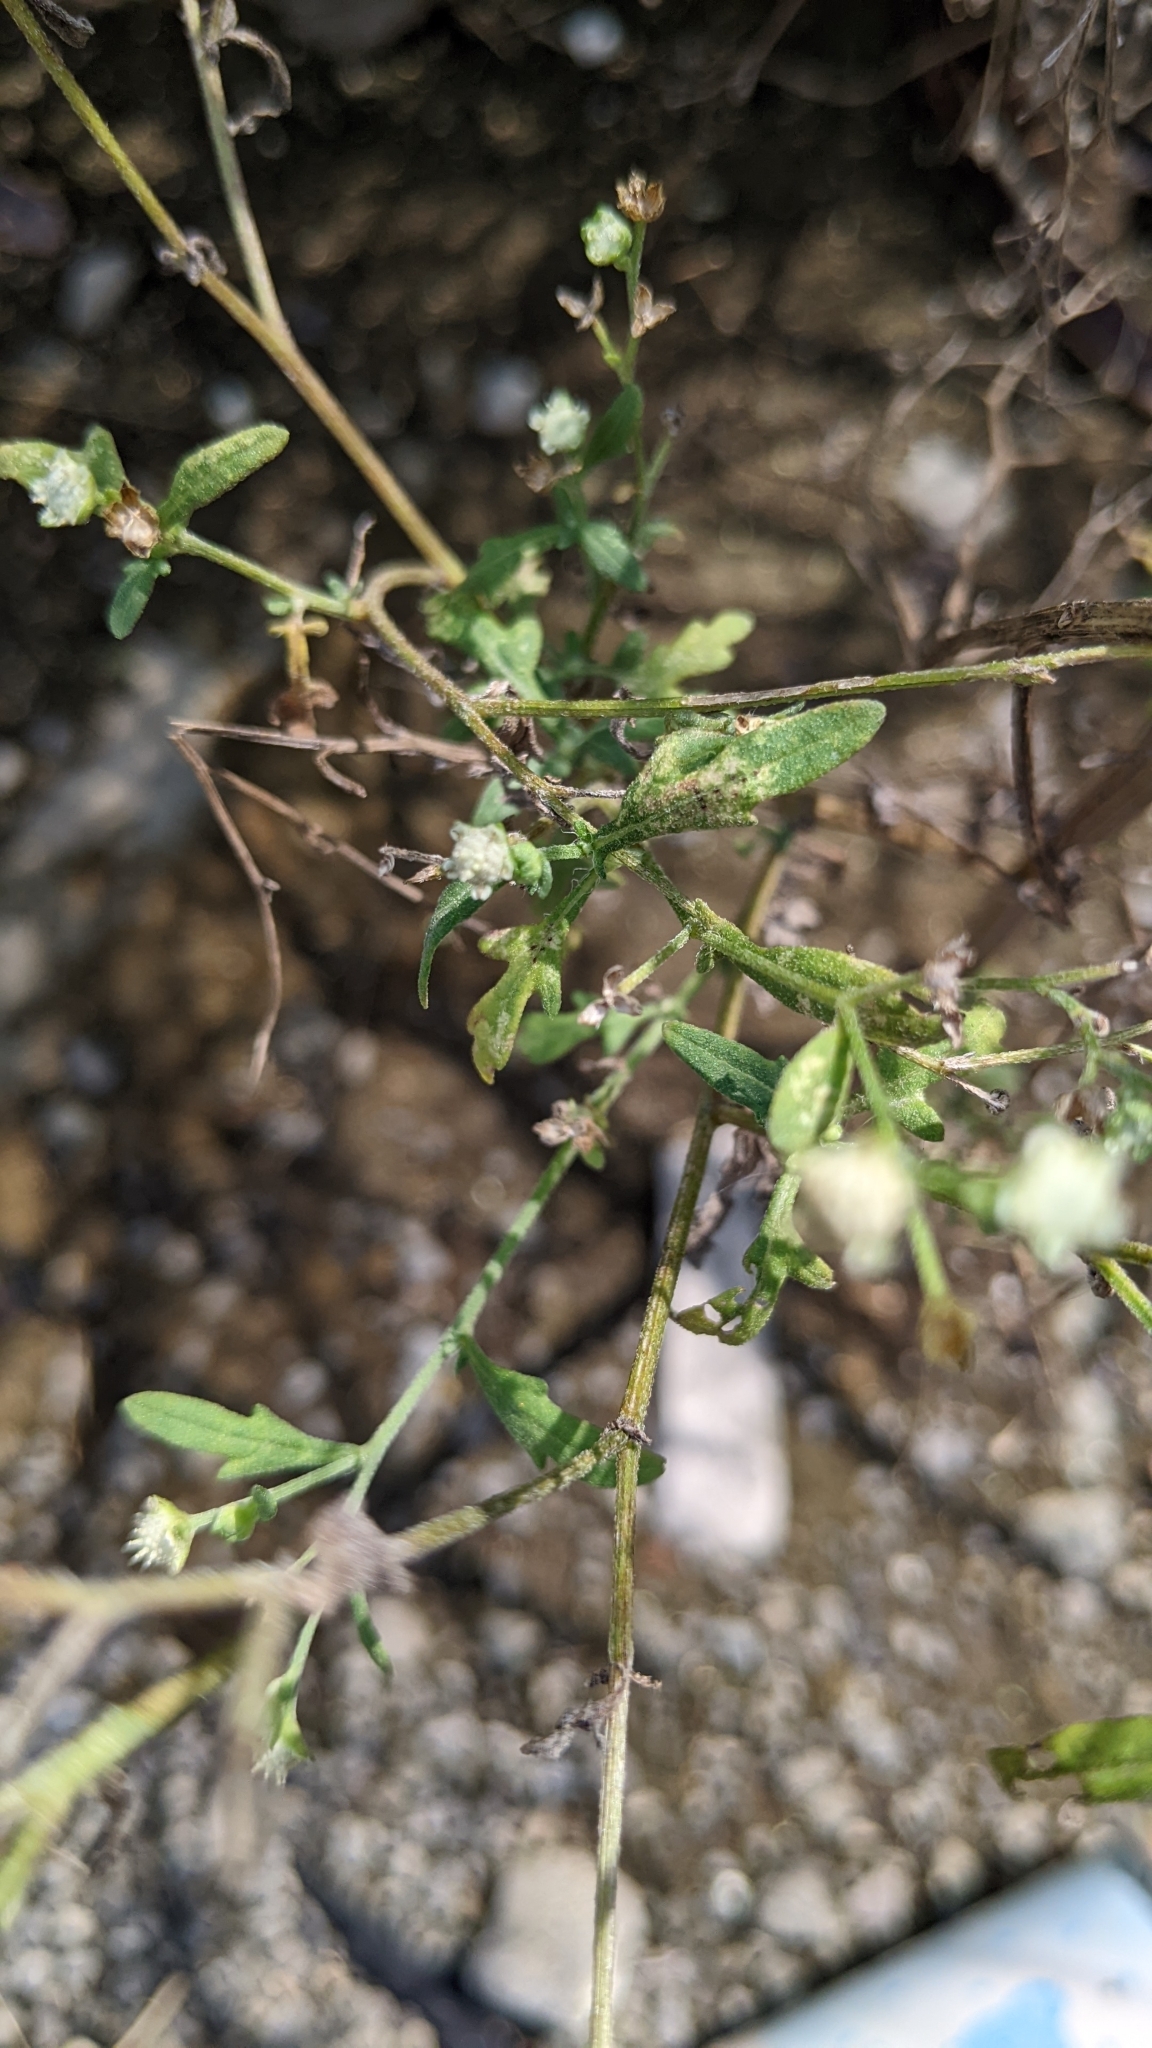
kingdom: Plantae
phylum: Tracheophyta
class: Magnoliopsida
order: Asterales
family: Asteraceae
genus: Parthenium
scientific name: Parthenium hysterophorus
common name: Santa maria feverfew
